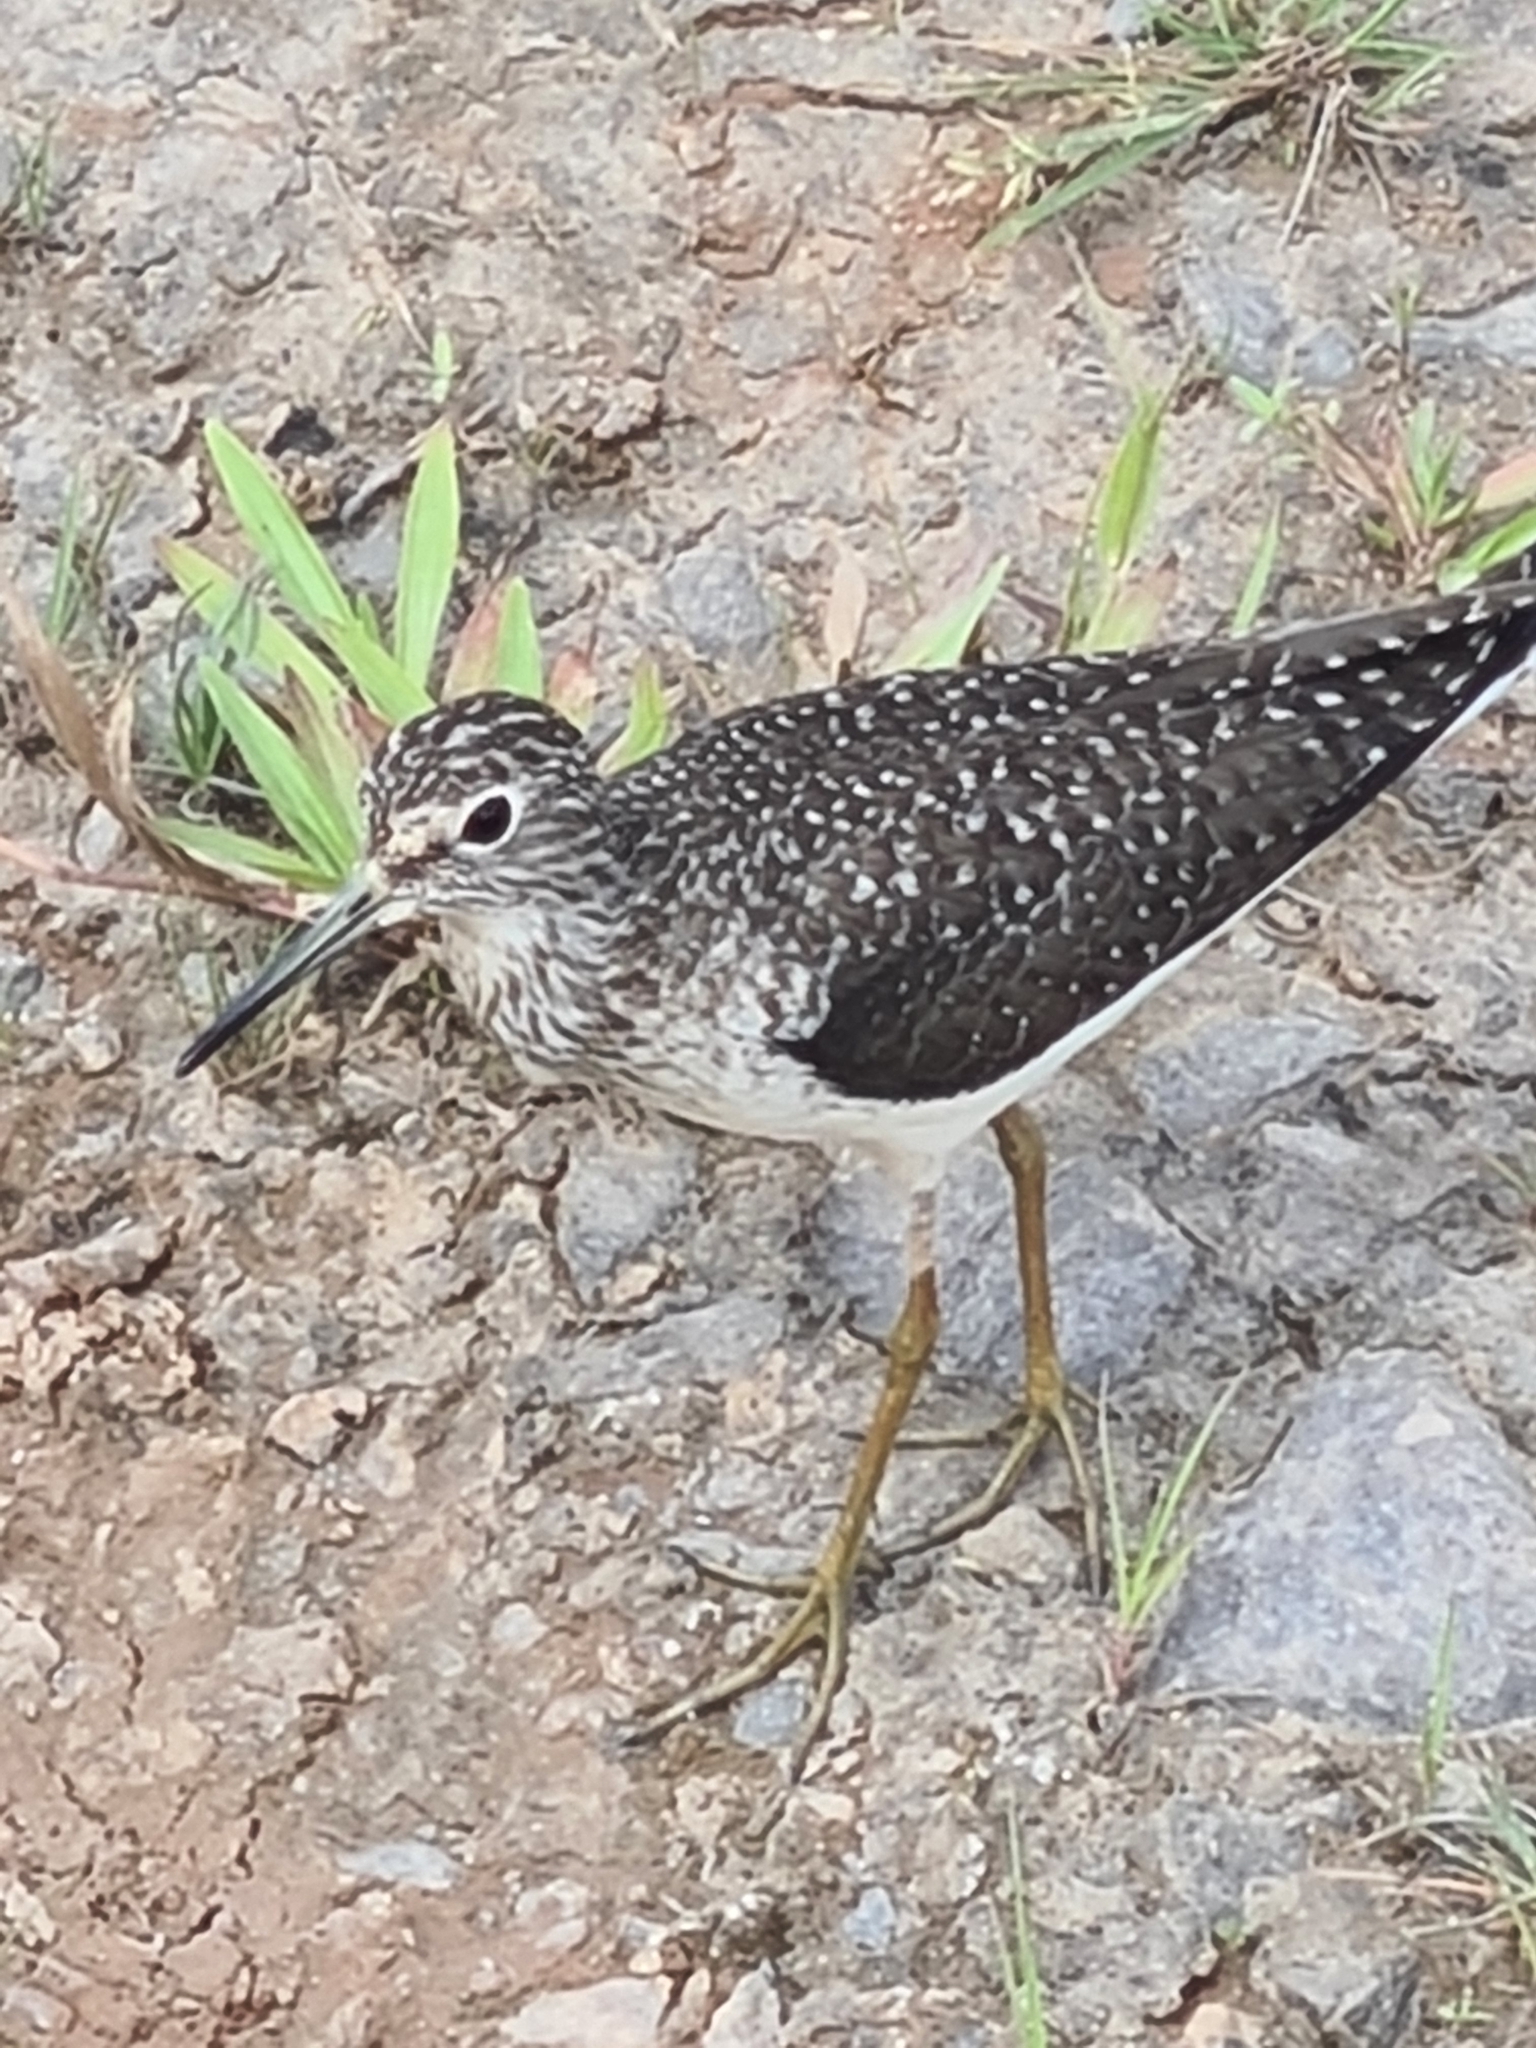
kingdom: Animalia
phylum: Chordata
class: Aves
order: Charadriiformes
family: Scolopacidae
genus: Tringa
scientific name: Tringa solitaria
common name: Solitary sandpiper
